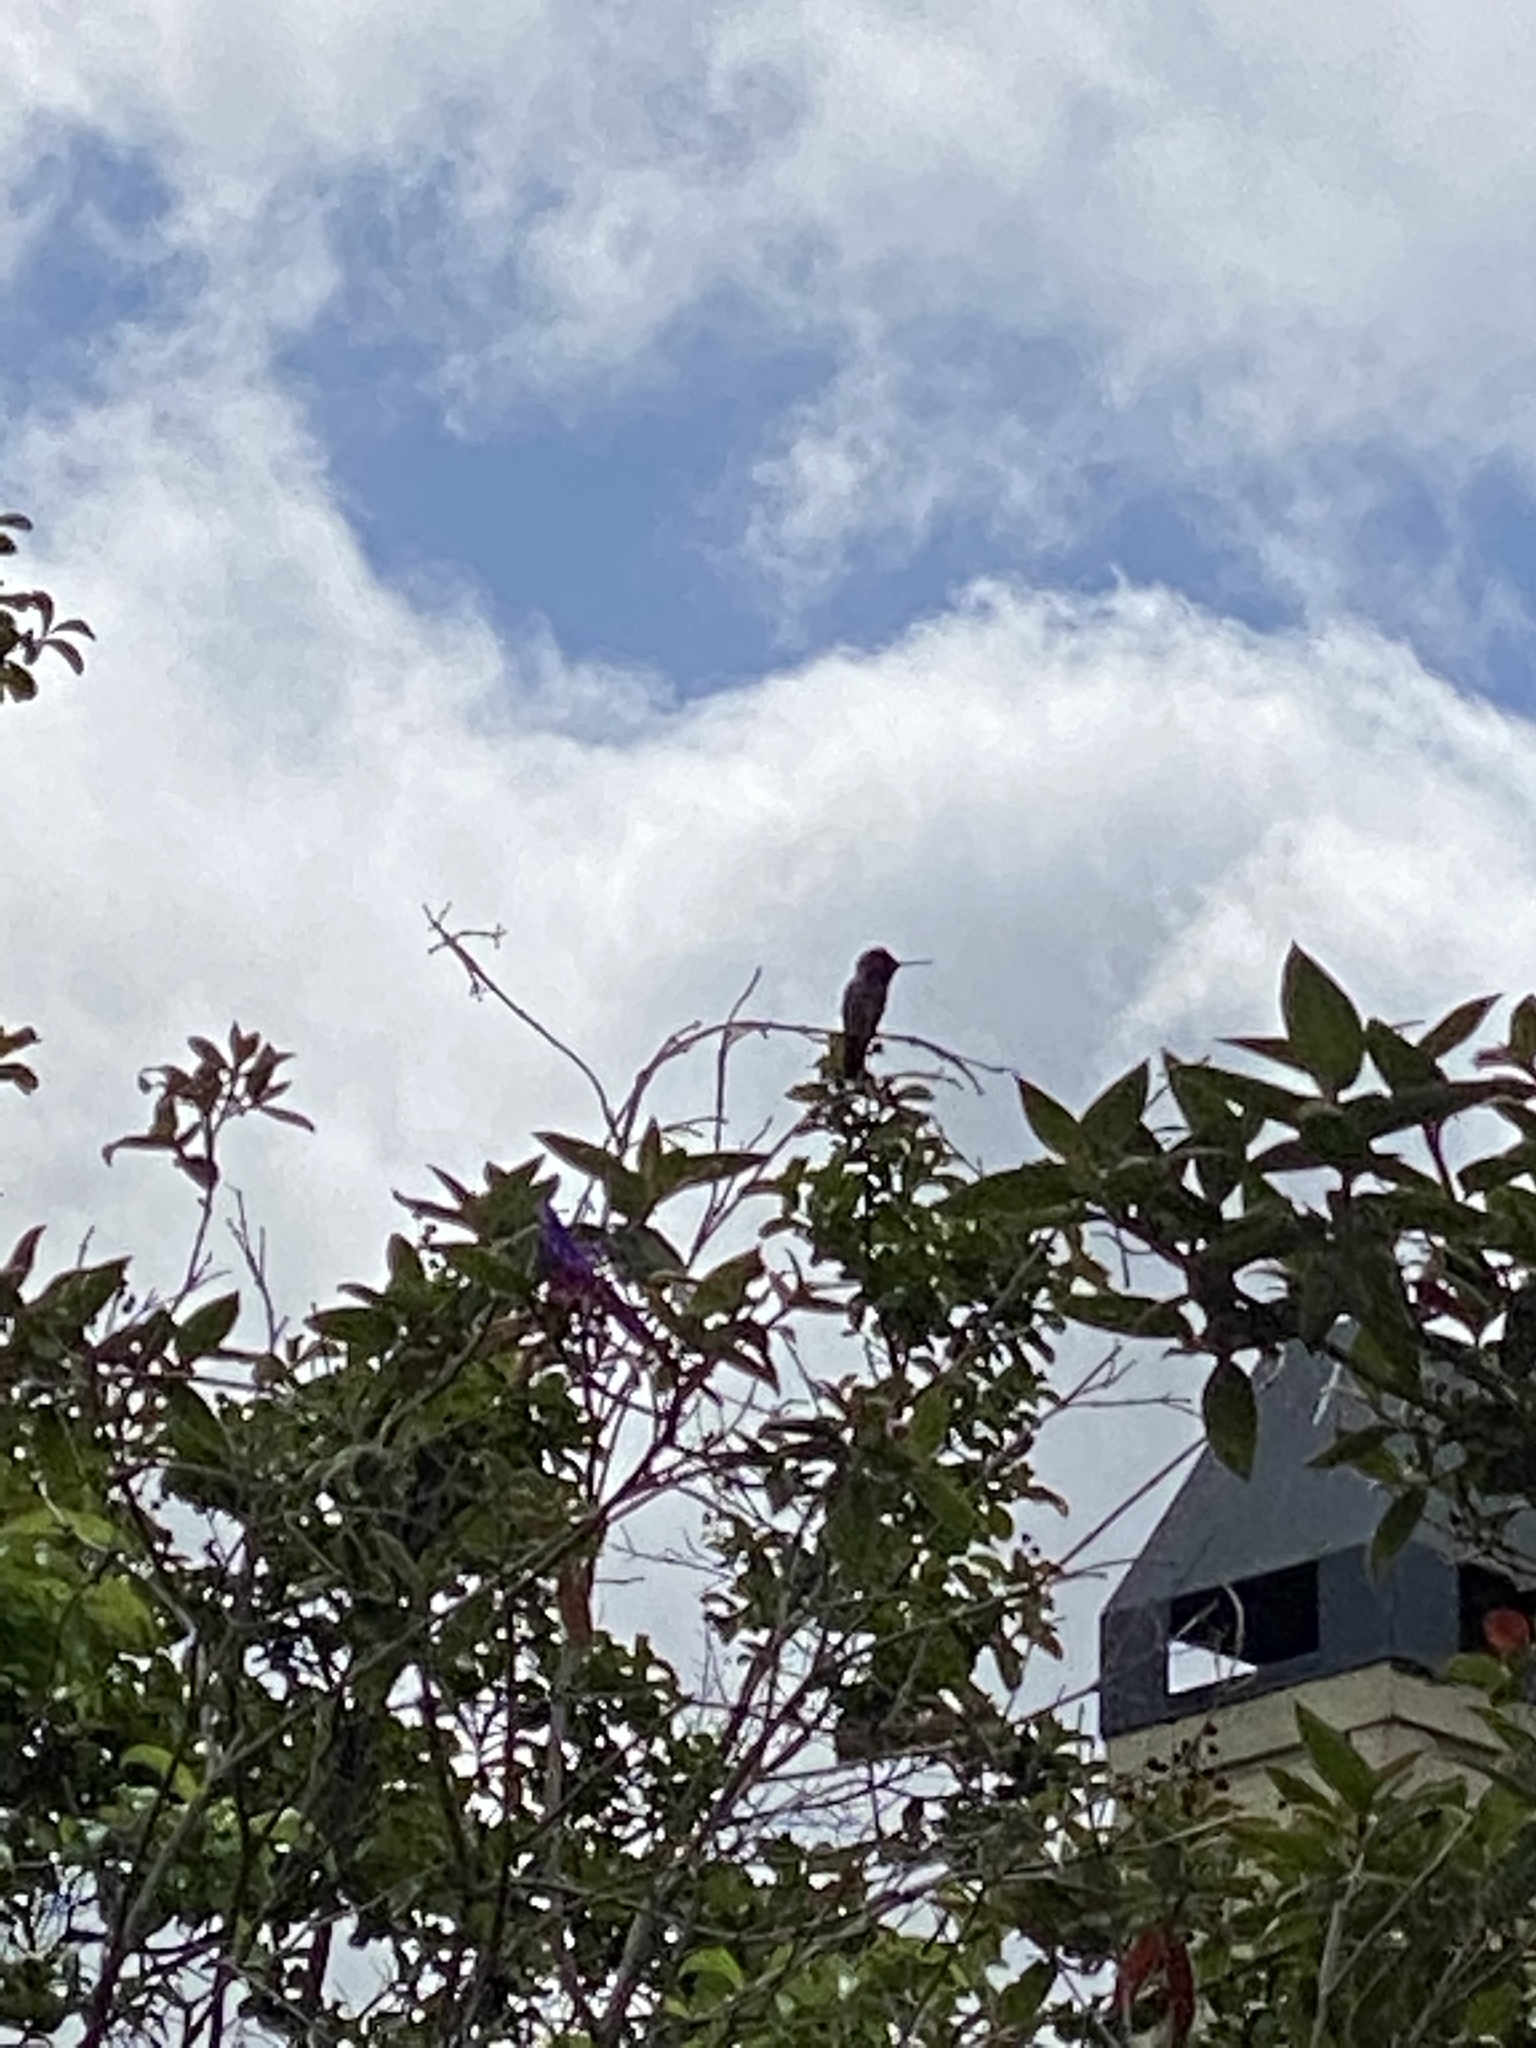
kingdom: Animalia
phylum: Chordata
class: Aves
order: Apodiformes
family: Trochilidae
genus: Calypte
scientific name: Calypte anna
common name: Anna's hummingbird
